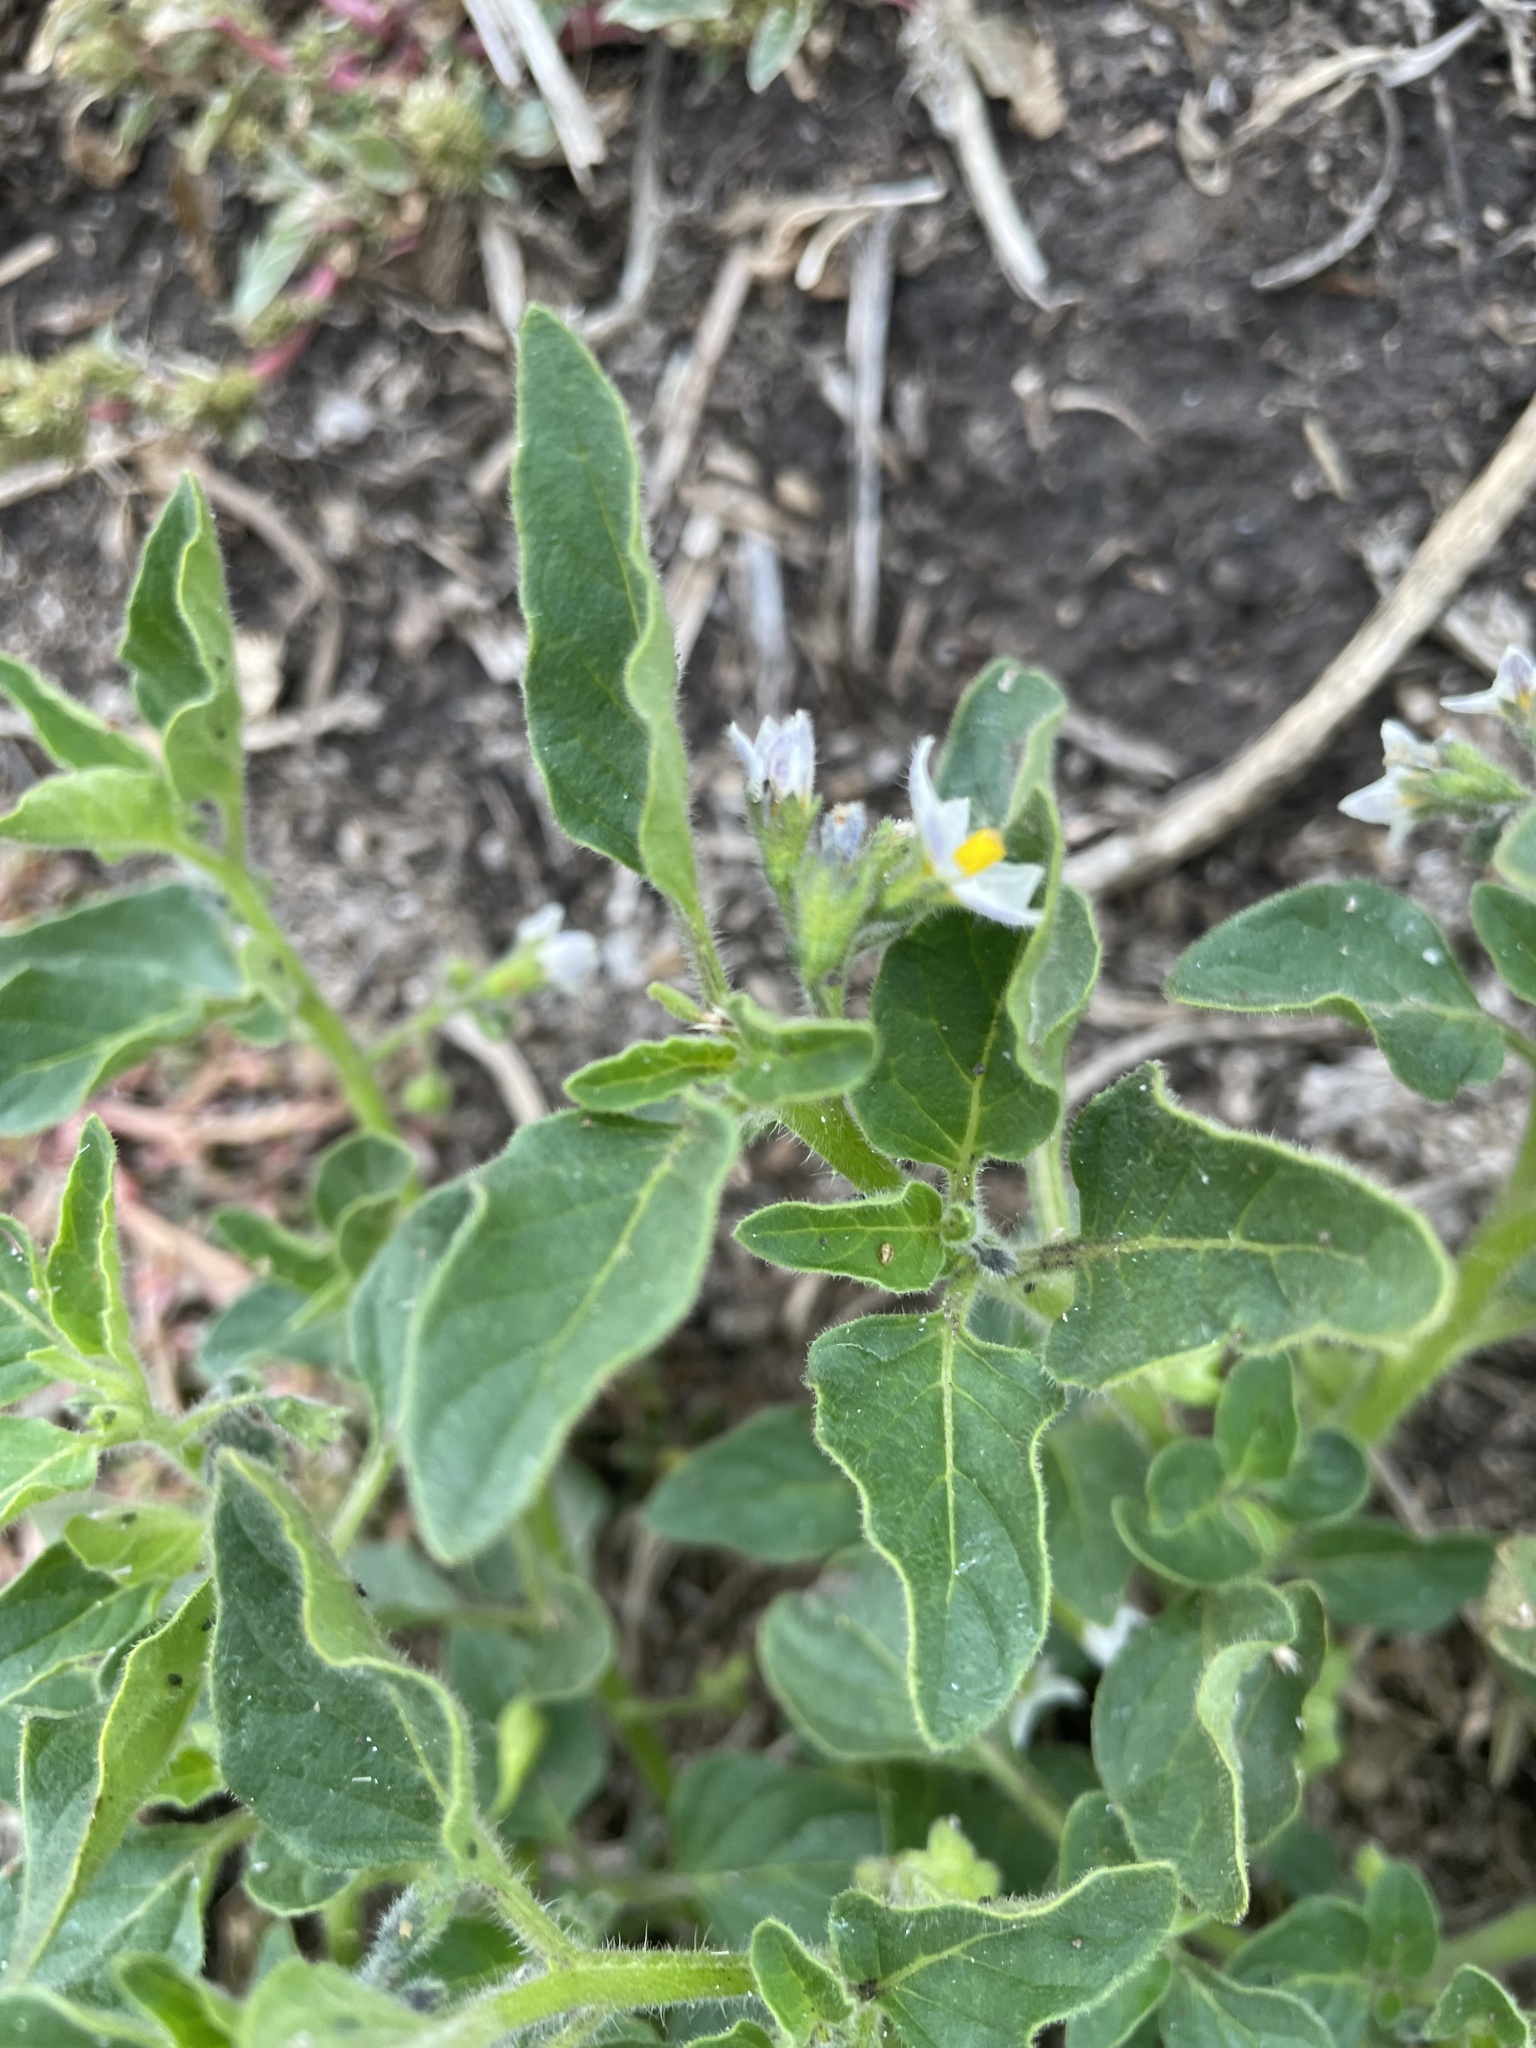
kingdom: Plantae
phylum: Tracheophyta
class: Magnoliopsida
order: Solanales
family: Solanaceae
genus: Solanum
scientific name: Solanum nitidibaccatum
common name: Hairy nightshade
